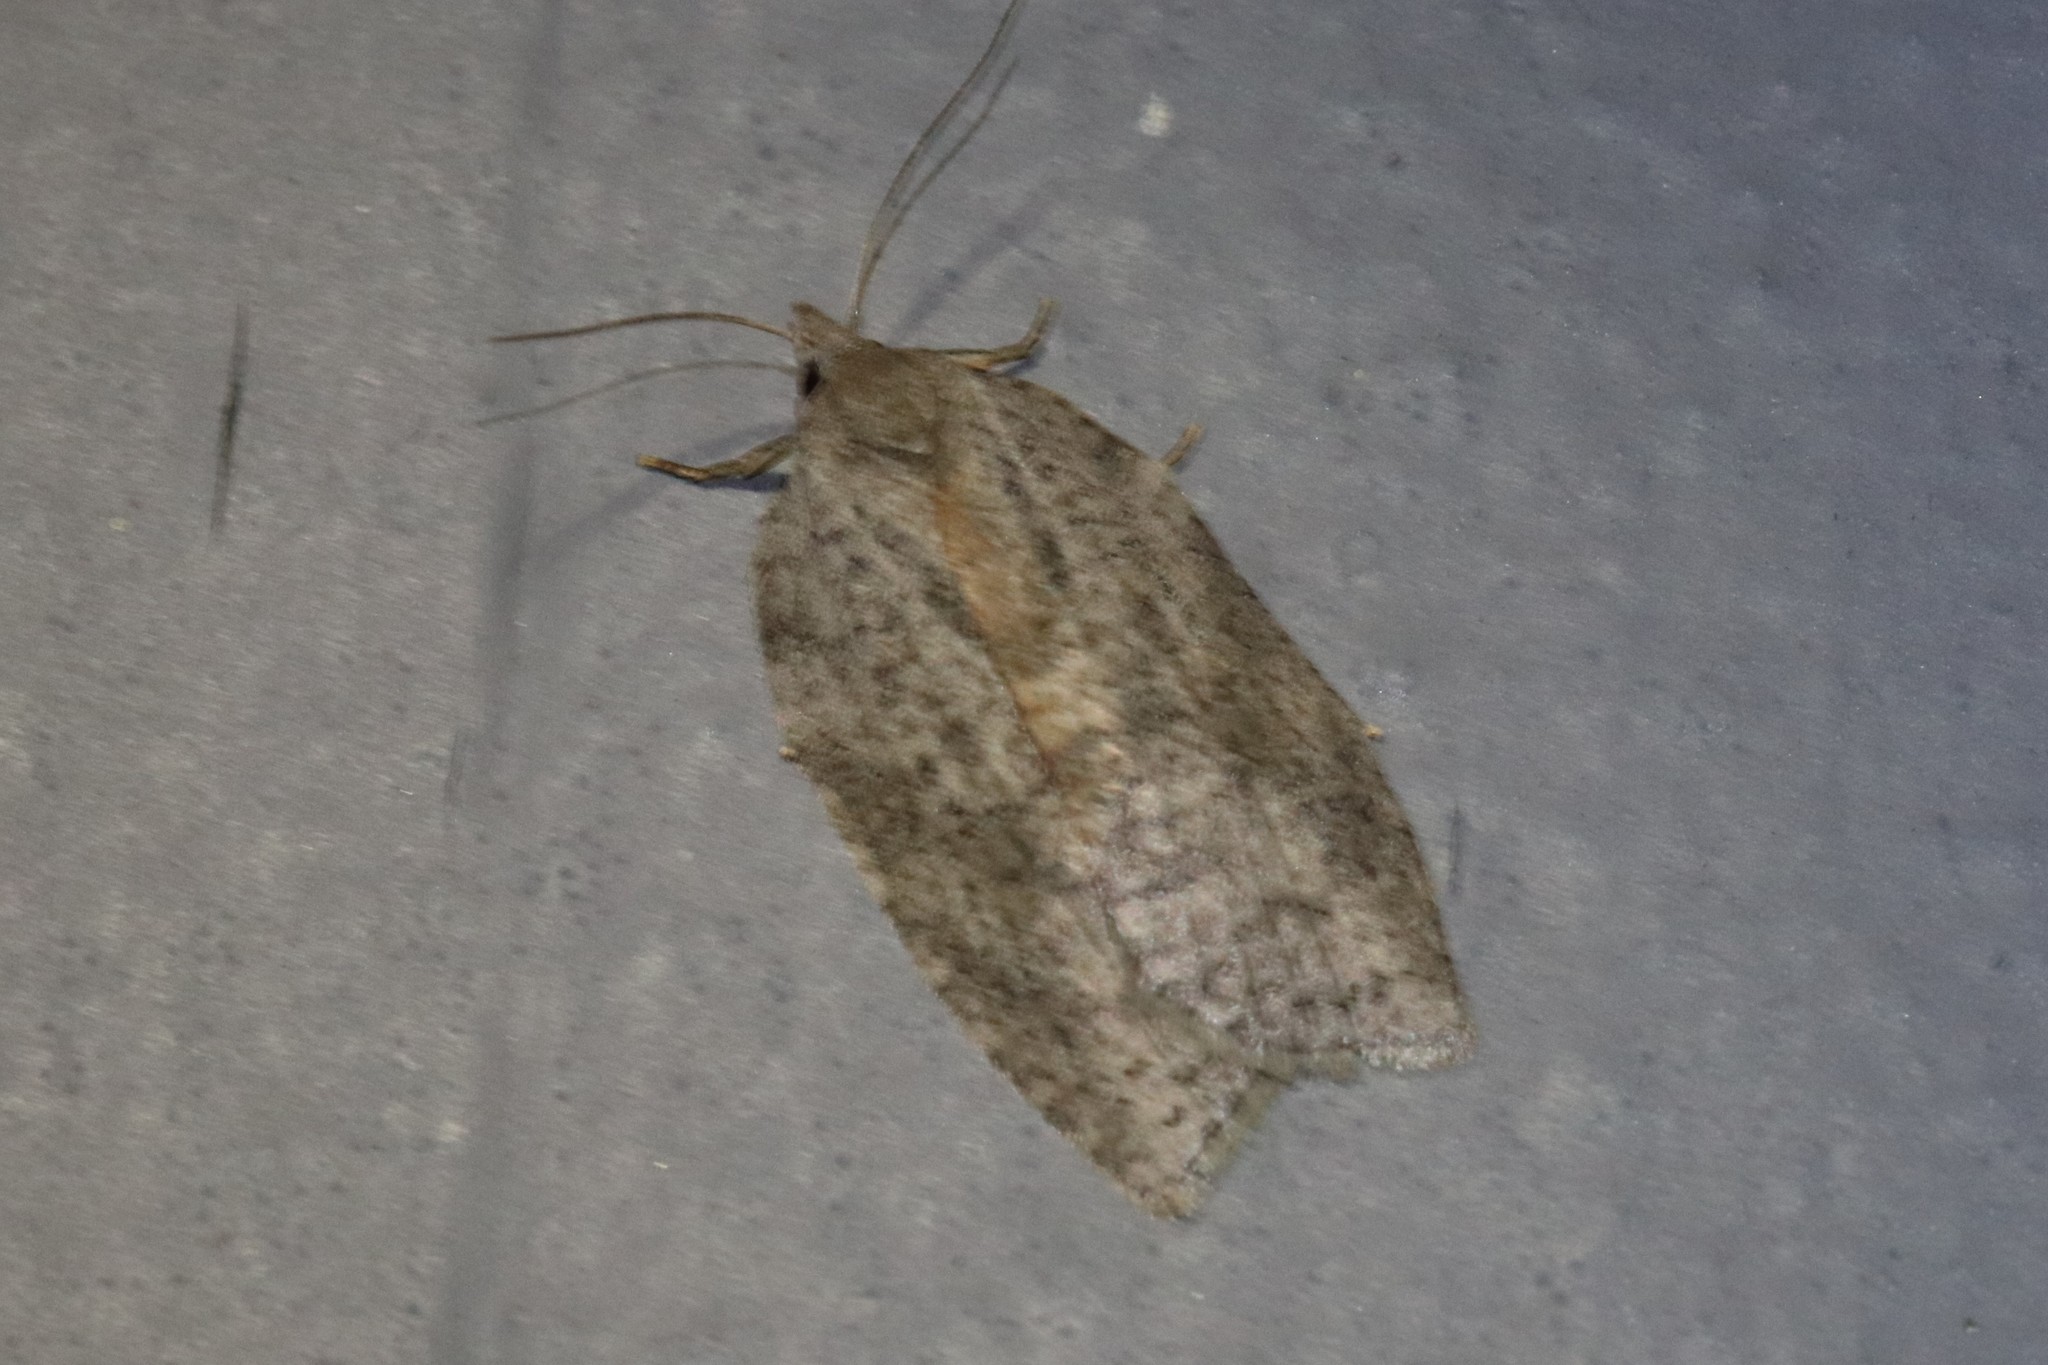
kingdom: Animalia
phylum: Arthropoda
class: Insecta
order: Lepidoptera
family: Tortricidae
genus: Amorbia
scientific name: Amorbia humerosana
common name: White-lined leafroller moth
